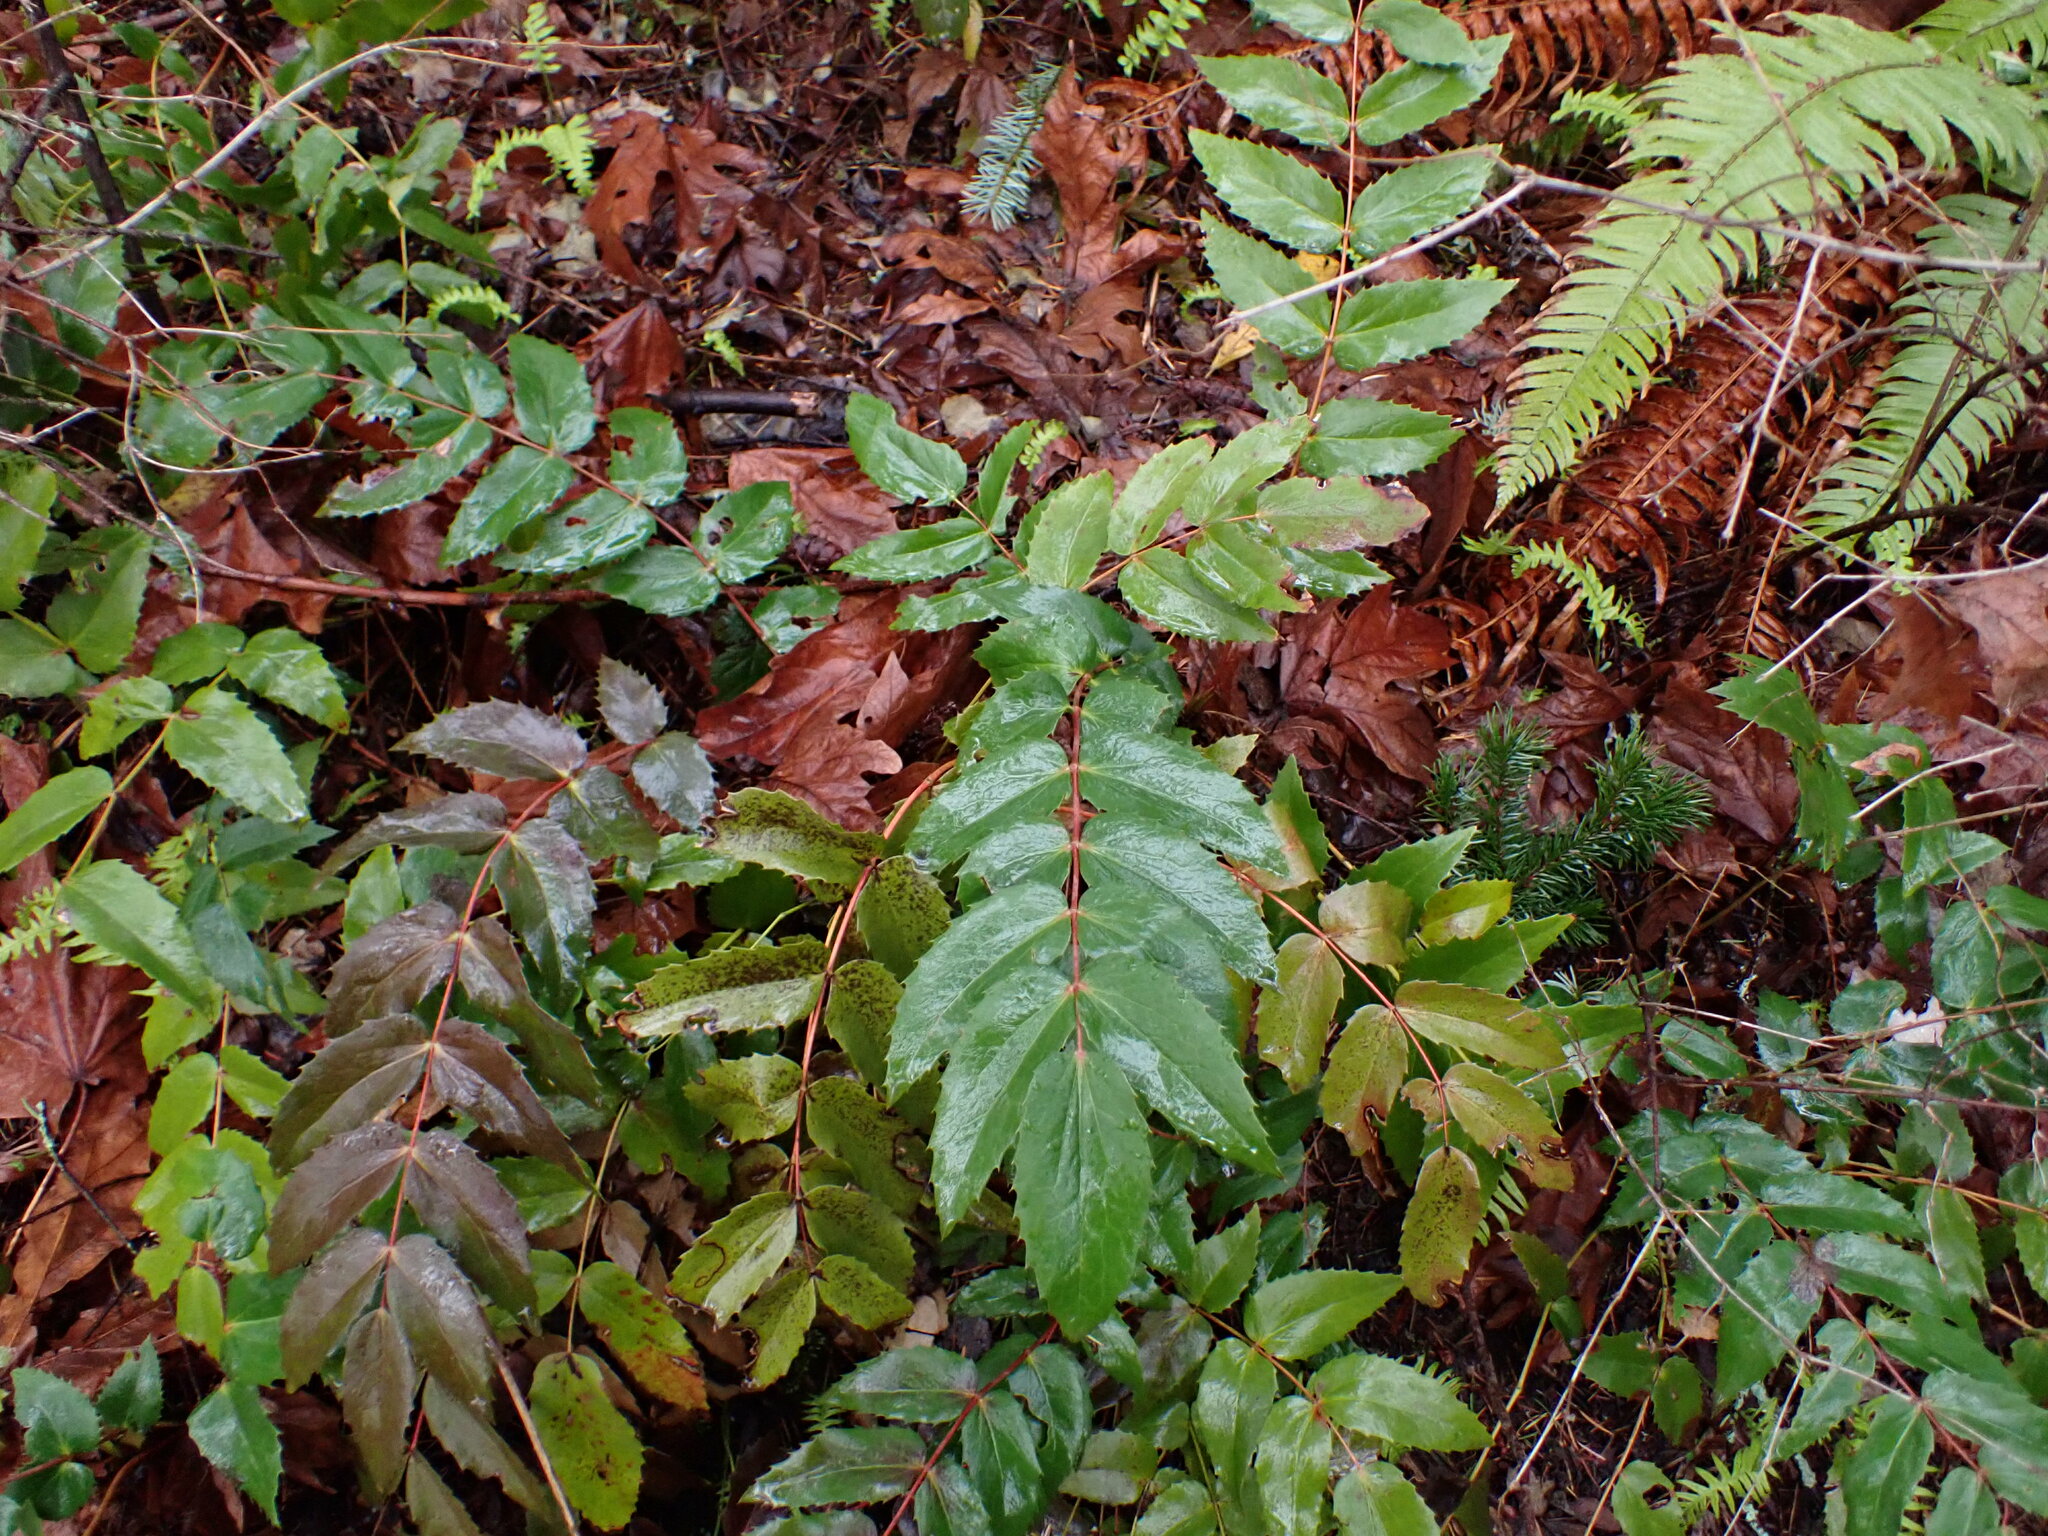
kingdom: Plantae
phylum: Tracheophyta
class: Magnoliopsida
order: Ranunculales
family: Berberidaceae
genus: Mahonia
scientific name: Mahonia nervosa
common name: Cascade oregon-grape
